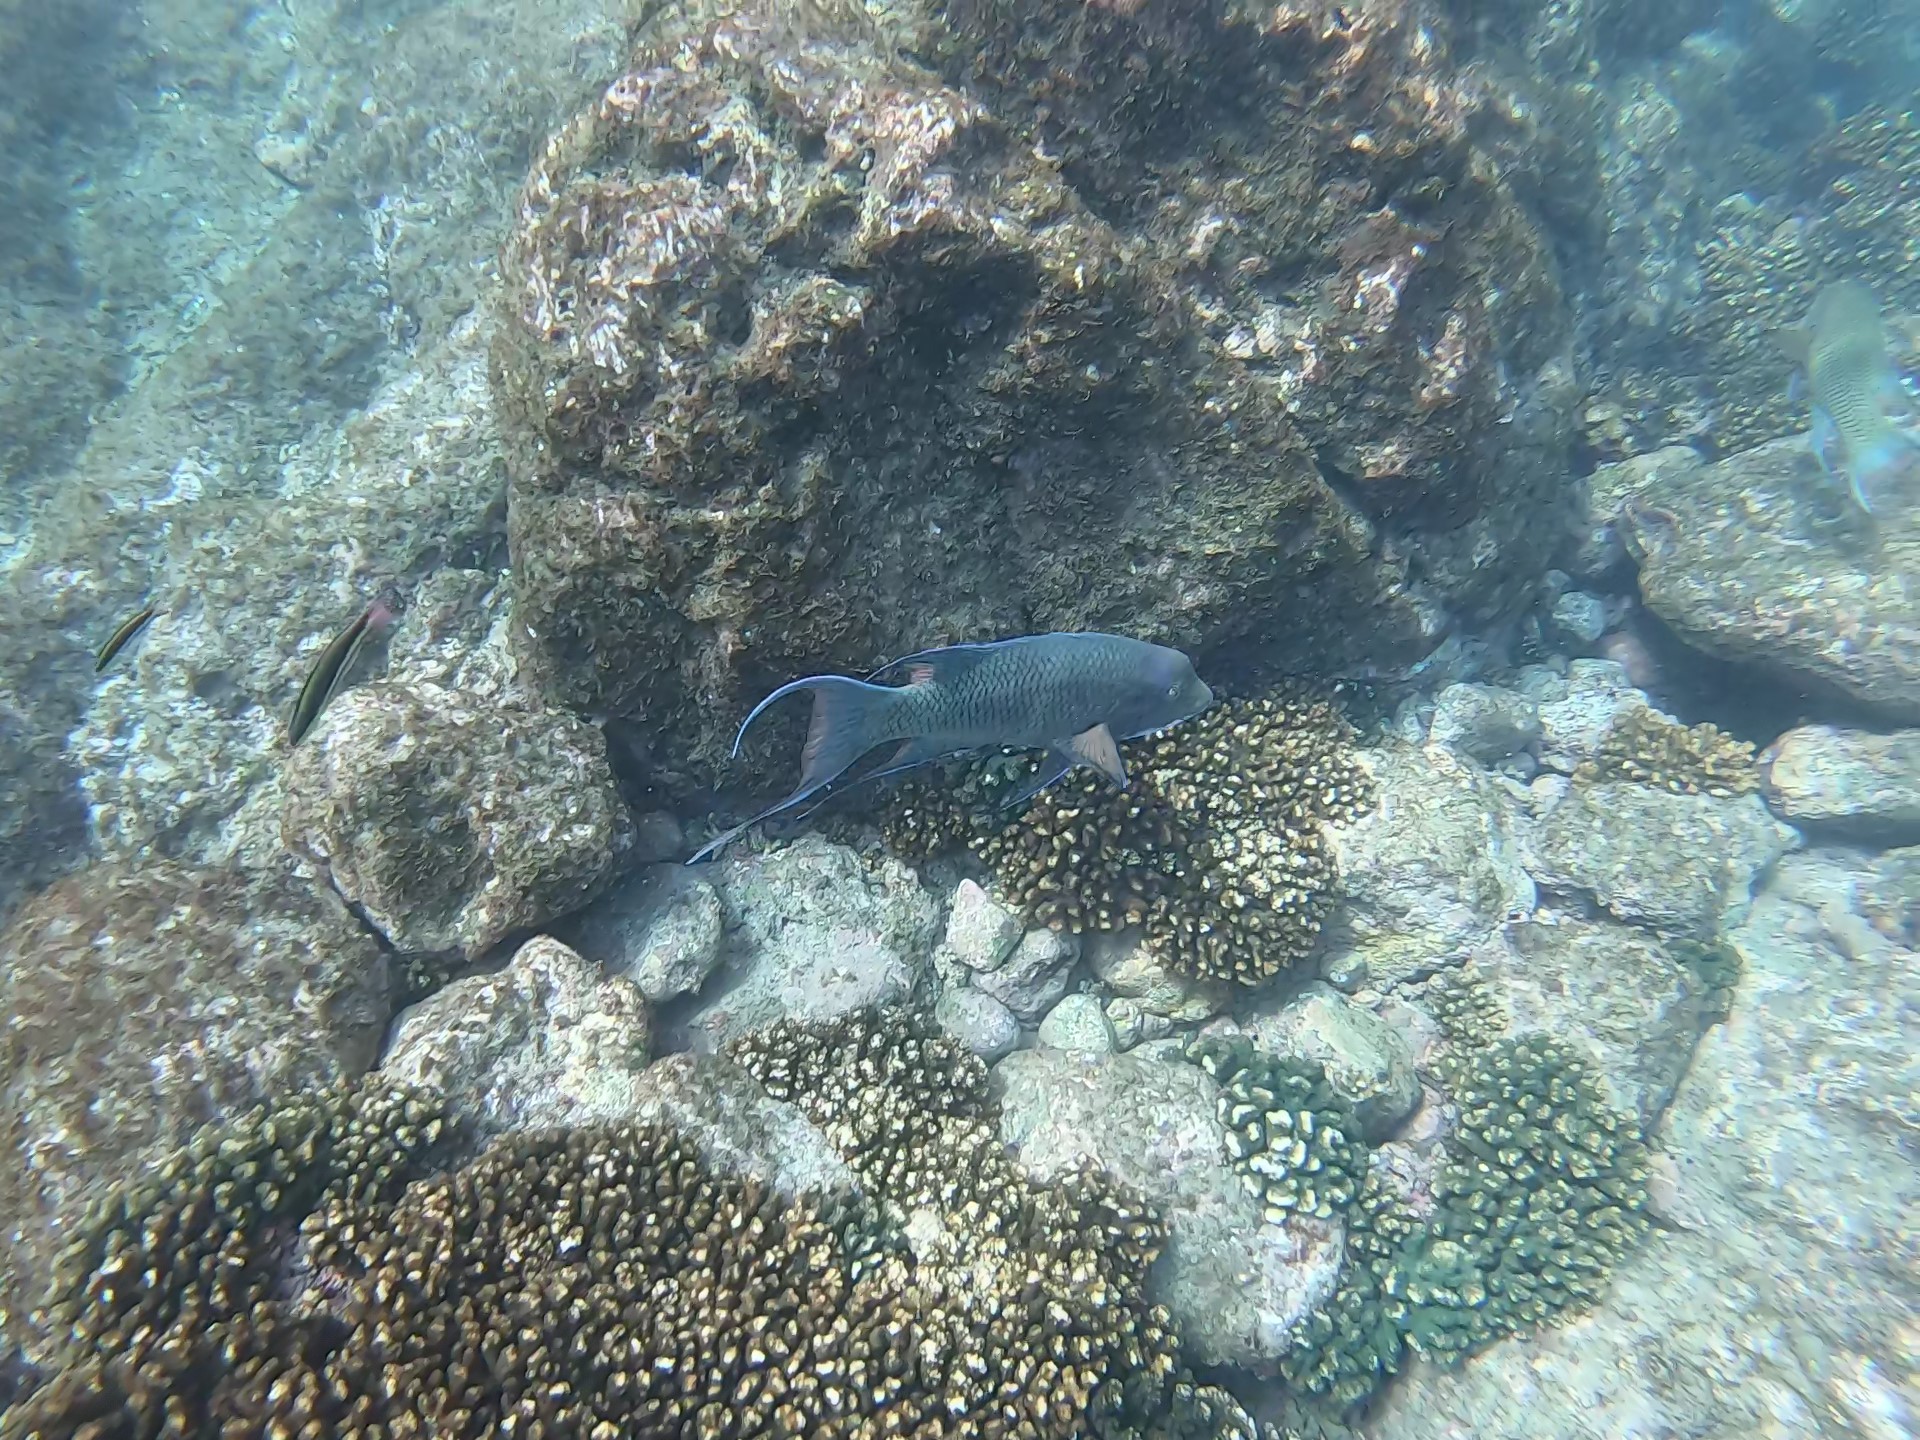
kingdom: Animalia
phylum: Chordata
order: Perciformes
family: Labridae
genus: Bodianus
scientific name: Bodianus diplotaenia
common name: Mexican hogfish
